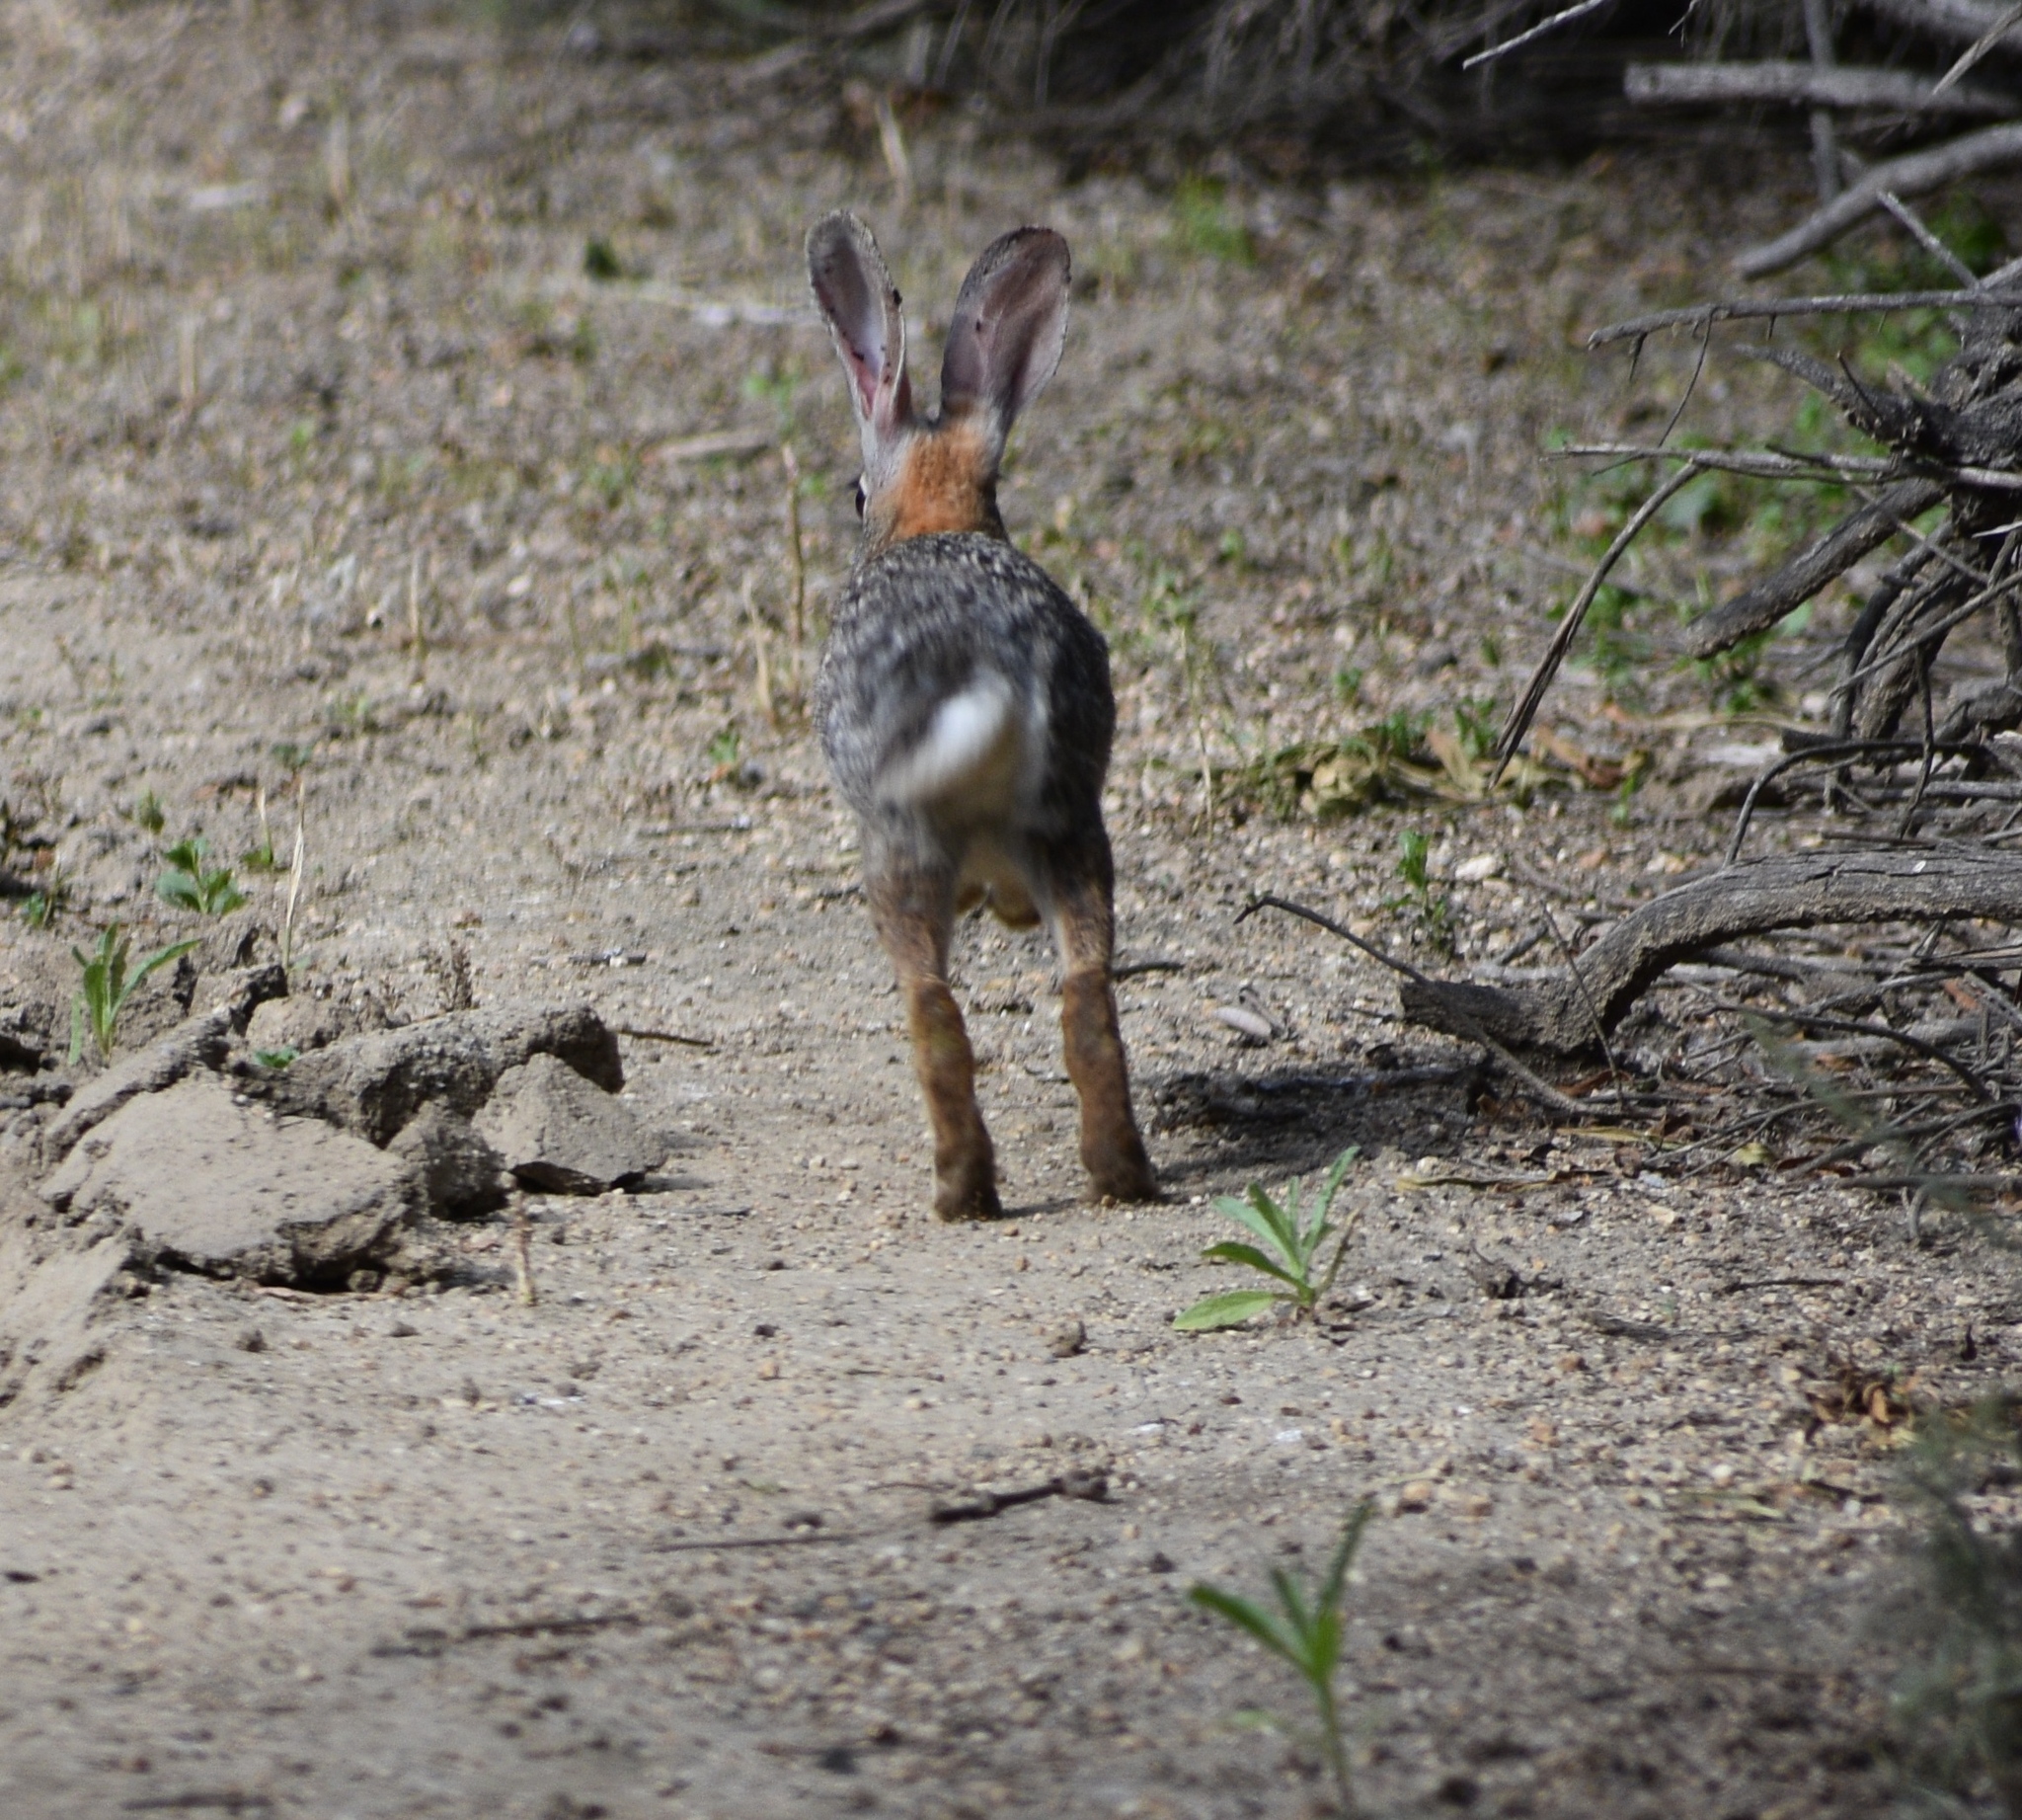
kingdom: Animalia
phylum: Chordata
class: Mammalia
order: Lagomorpha
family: Leporidae
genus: Sylvilagus
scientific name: Sylvilagus audubonii
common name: Desert cottontail
